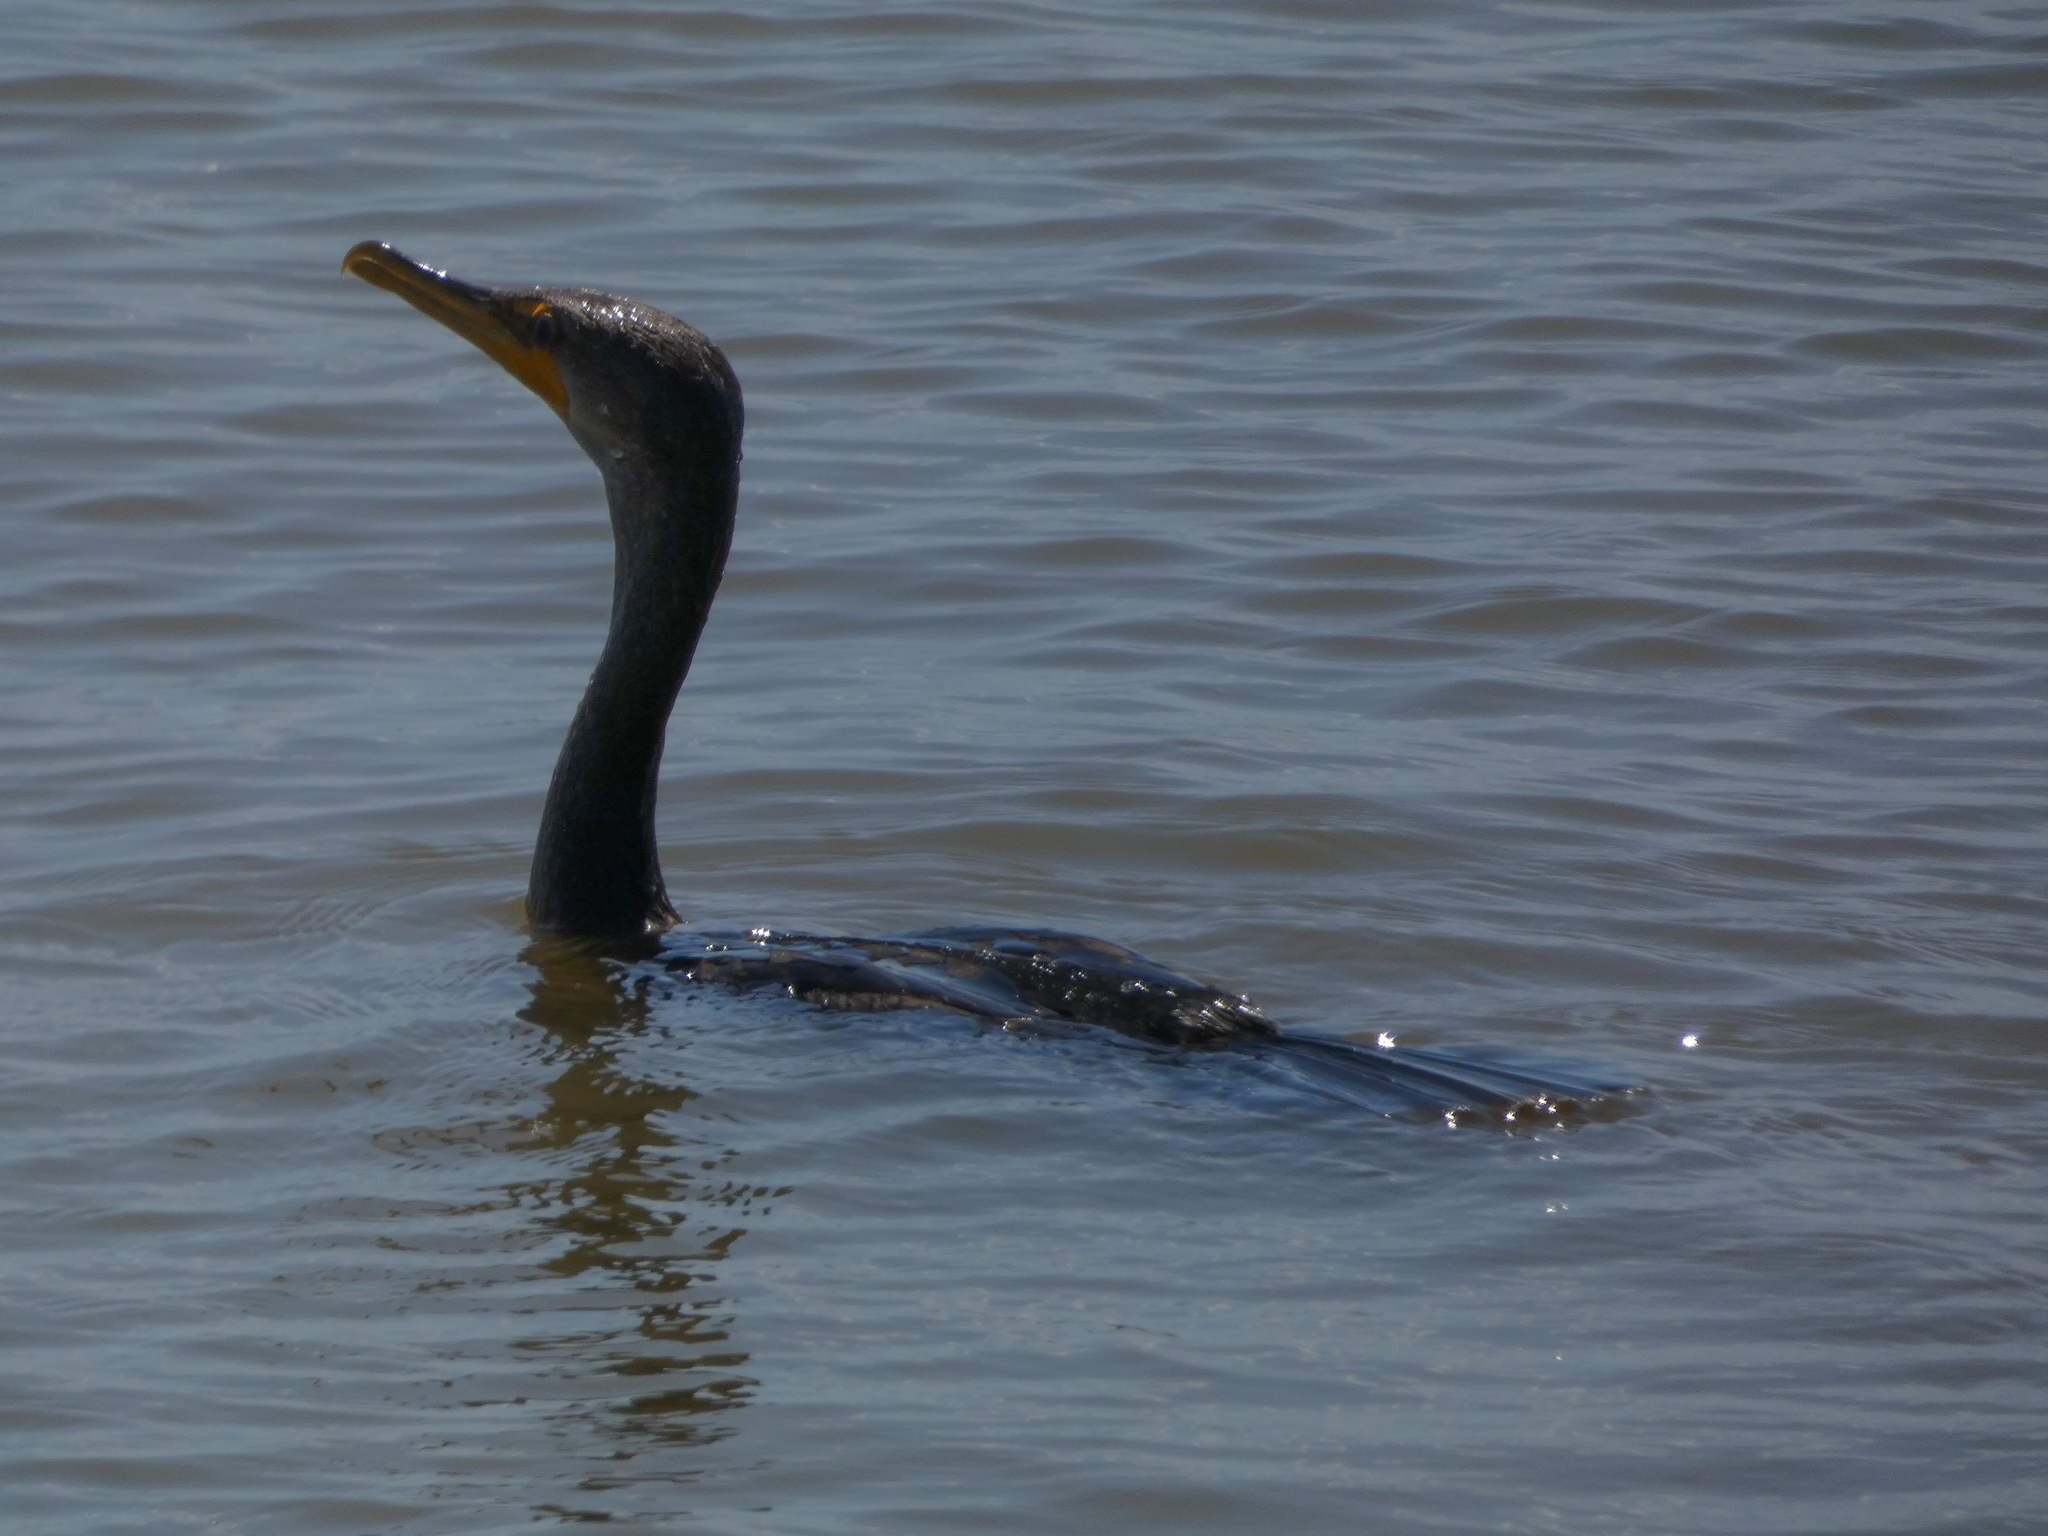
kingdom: Animalia
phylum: Chordata
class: Aves
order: Suliformes
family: Phalacrocoracidae
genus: Phalacrocorax
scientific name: Phalacrocorax auritus
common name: Double-crested cormorant
